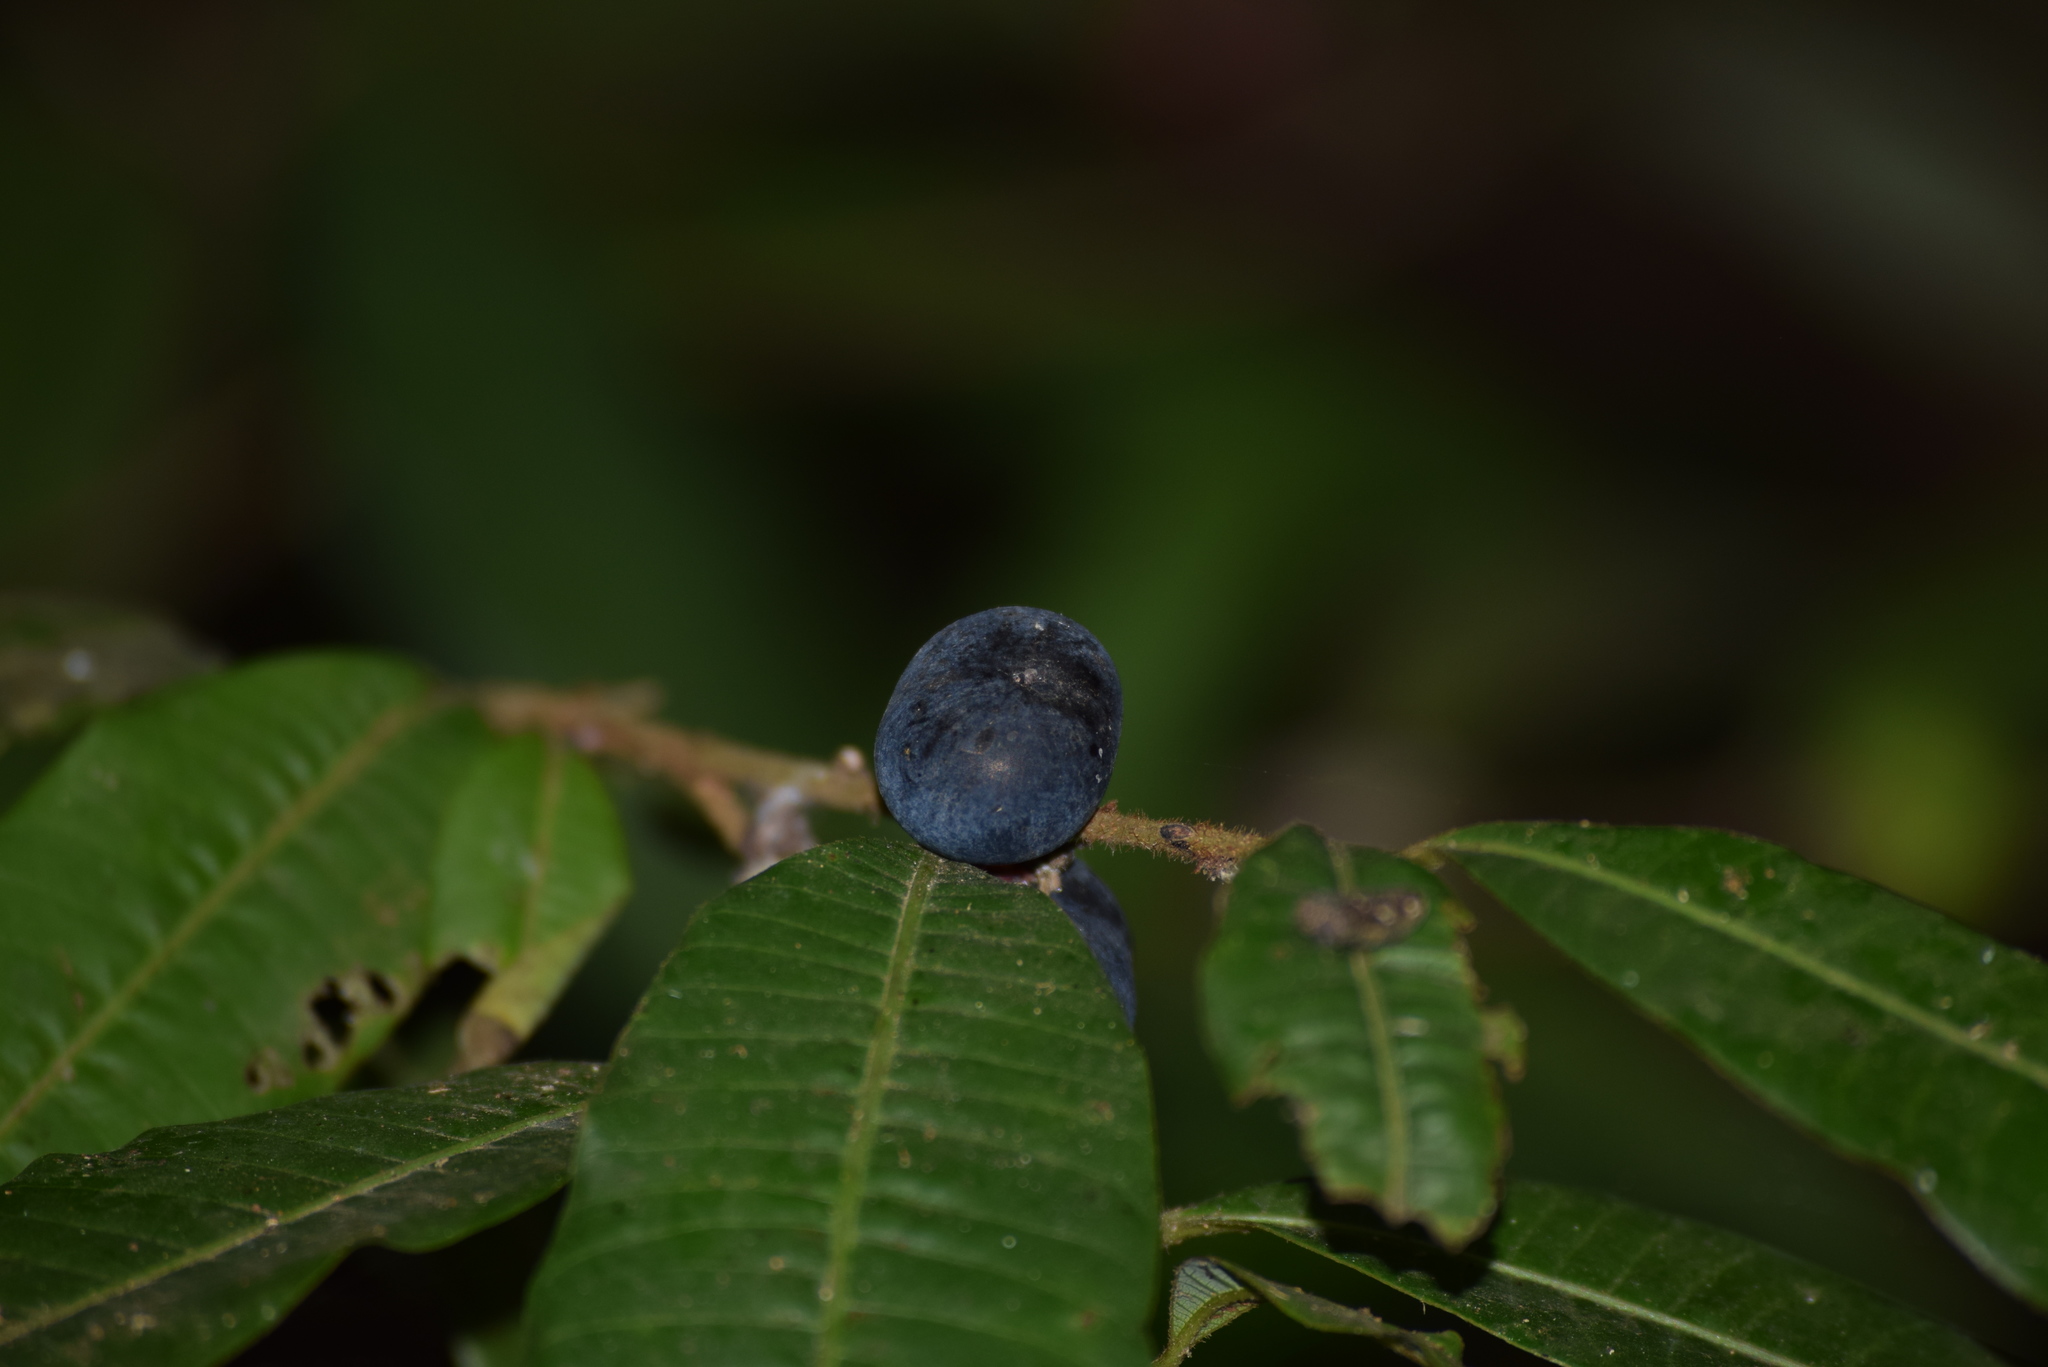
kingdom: Plantae
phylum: Tracheophyta
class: Magnoliopsida
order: Sapindales
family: Anacardiaceae
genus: Nothopegia
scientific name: Nothopegia beddomei
